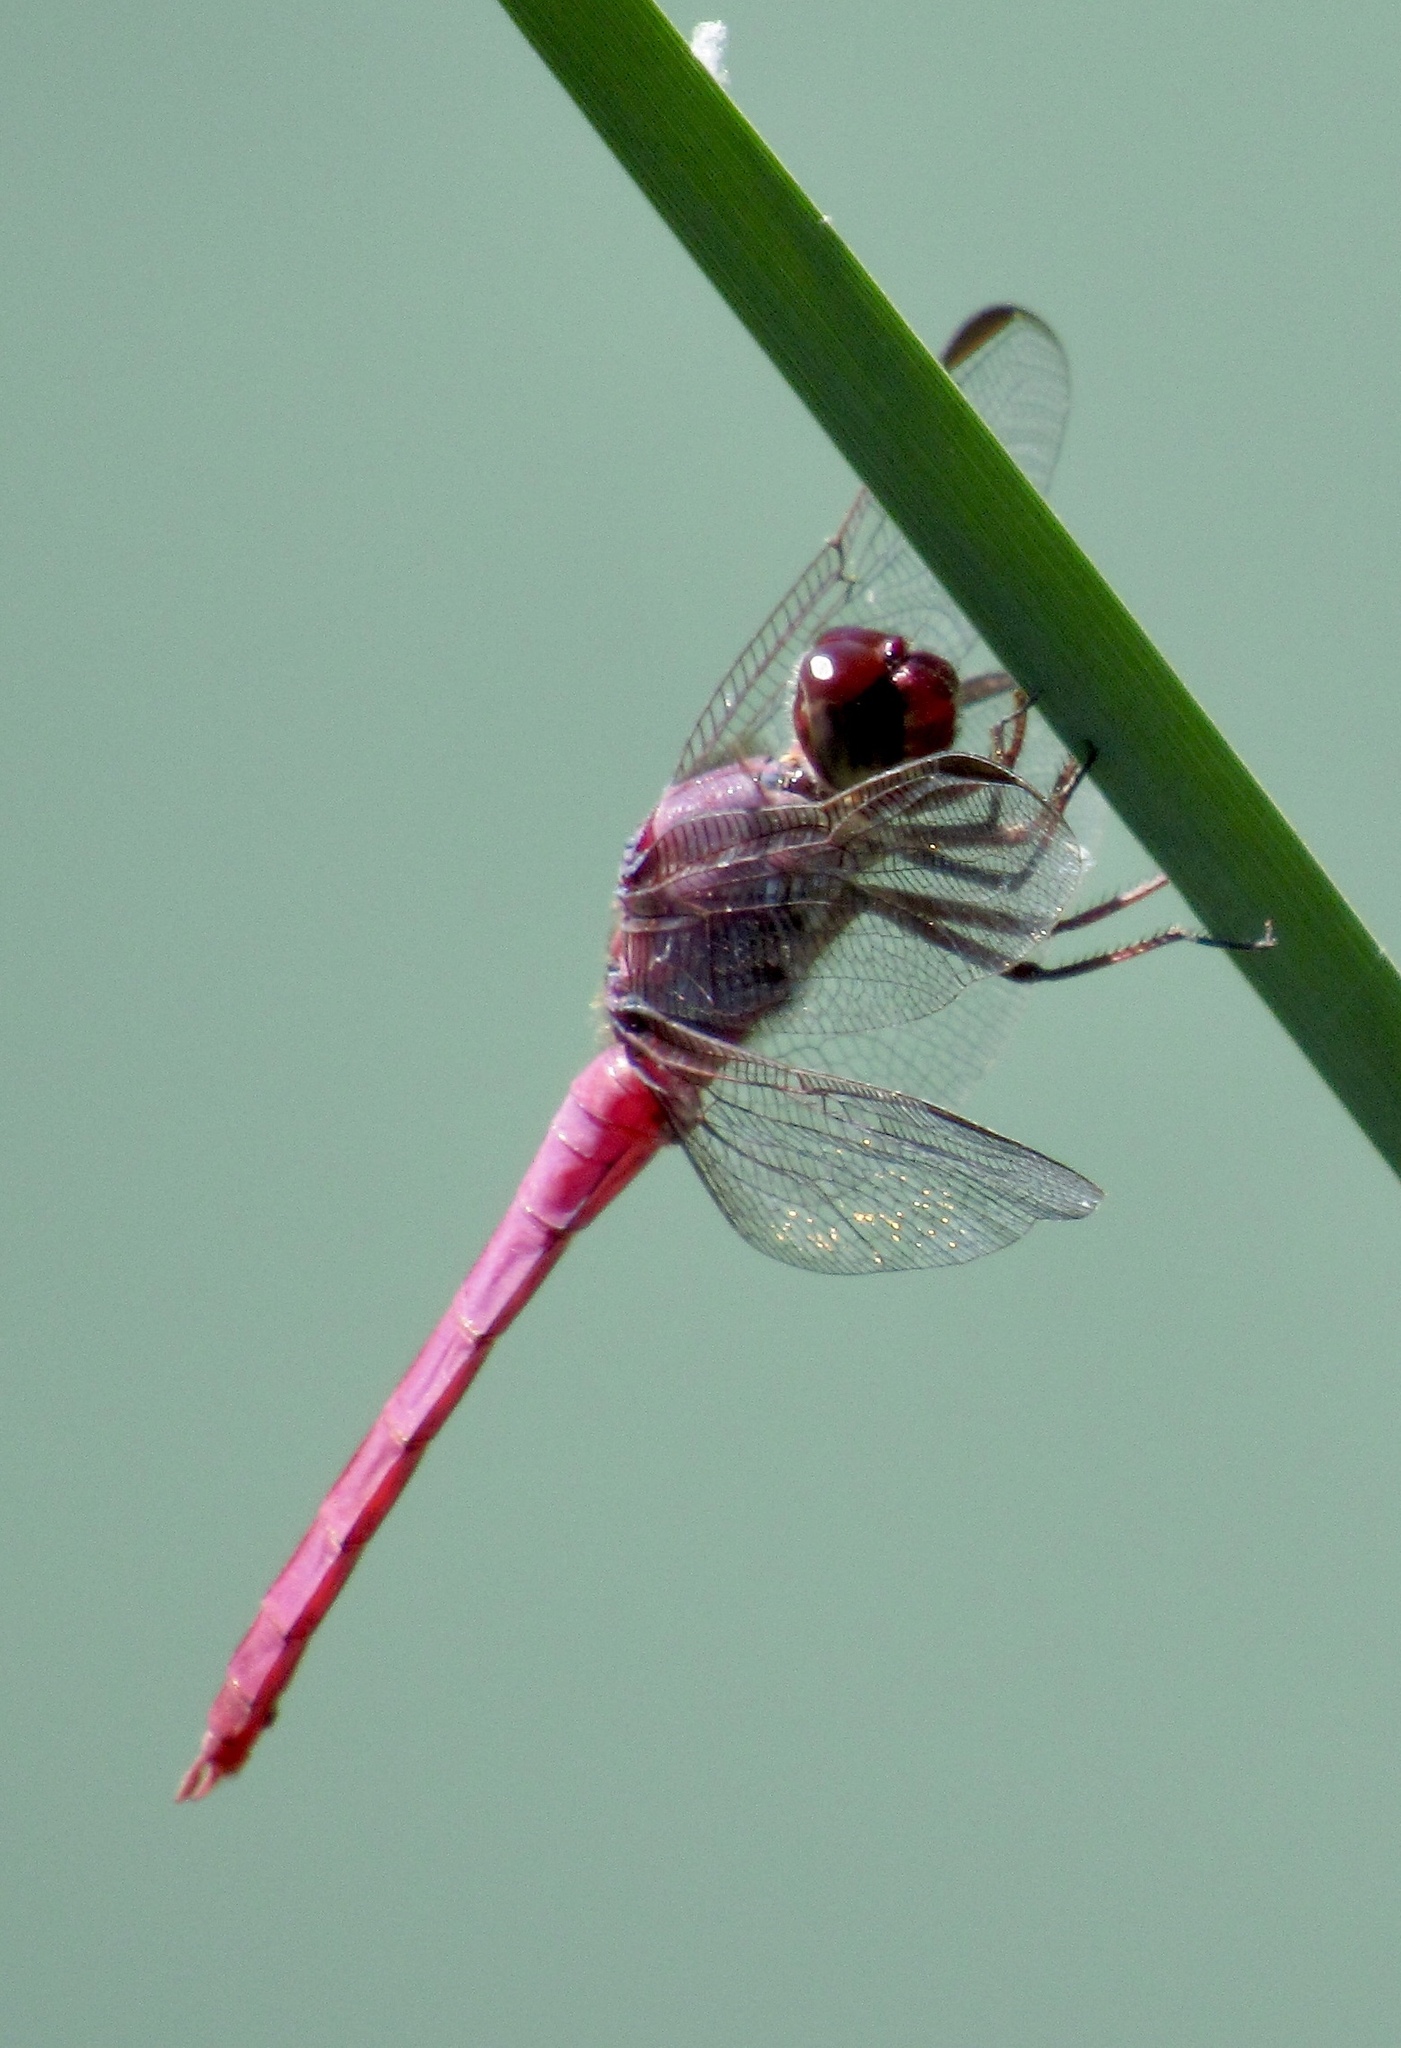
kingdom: Animalia
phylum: Arthropoda
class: Insecta
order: Odonata
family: Libellulidae
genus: Orthemis
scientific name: Orthemis ferruginea
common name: Roseate skimmer
